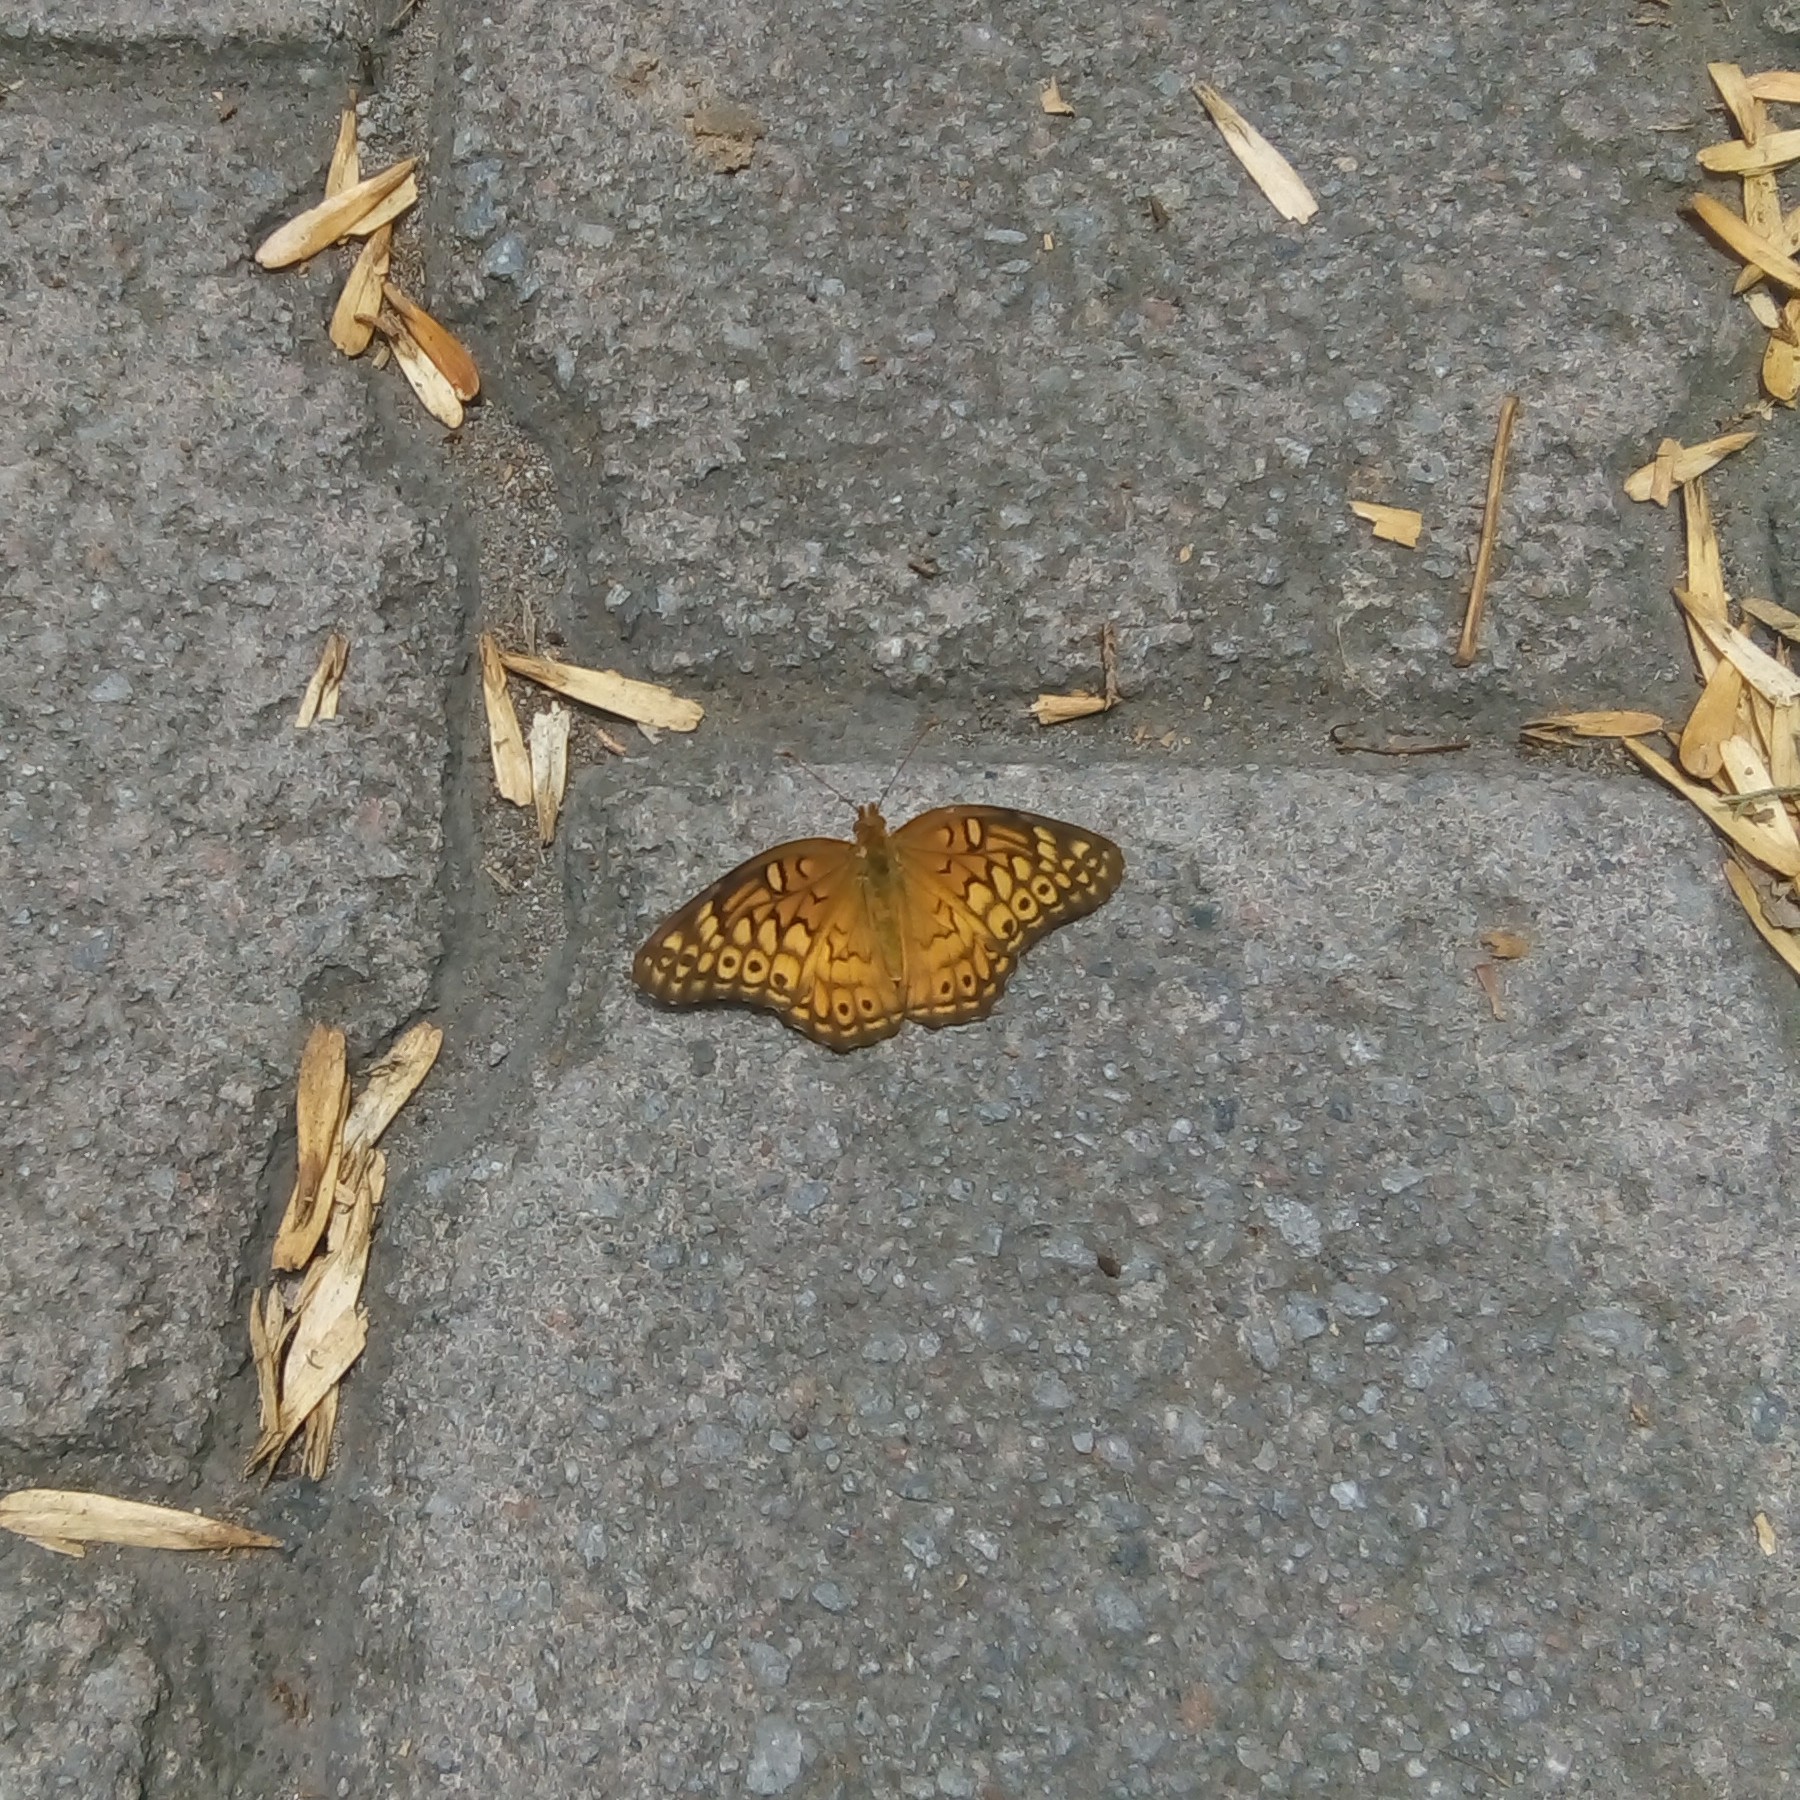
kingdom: Animalia
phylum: Arthropoda
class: Insecta
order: Lepidoptera
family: Nymphalidae
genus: Euptoieta
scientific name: Euptoieta claudia
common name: Variegated fritillary
